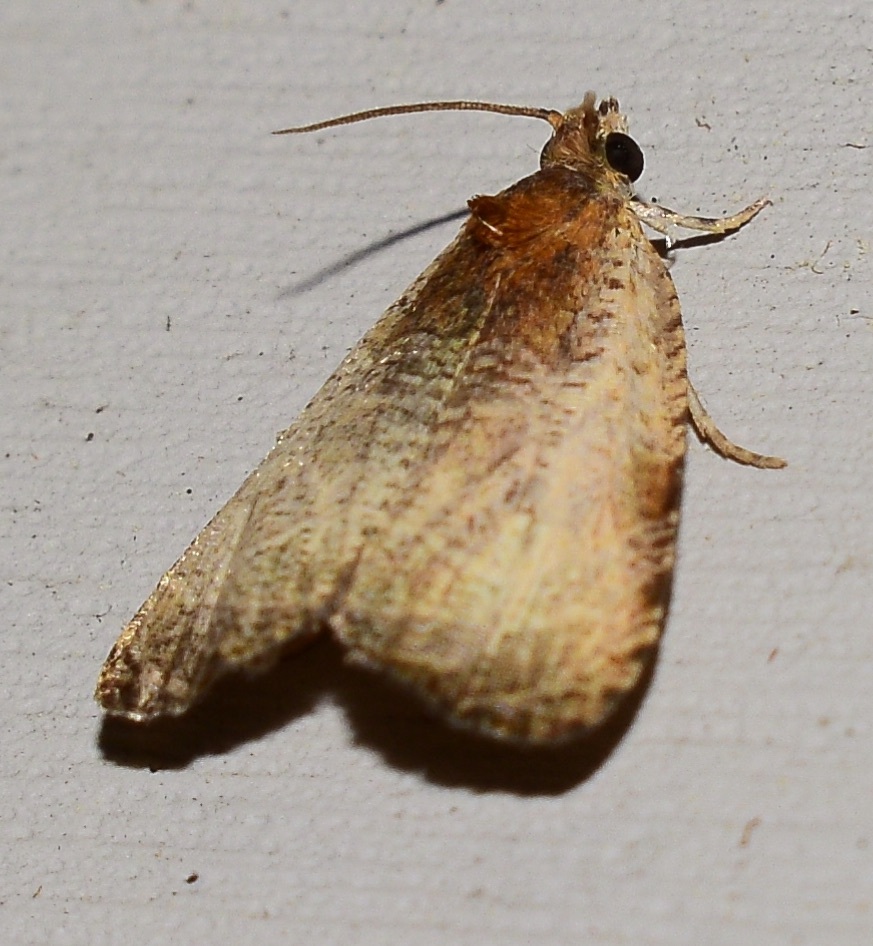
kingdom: Animalia
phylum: Arthropoda
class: Insecta
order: Lepidoptera
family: Tortricidae
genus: Olethreutes
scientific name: Olethreutes inornatana
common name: Inornate olethreutes moth
